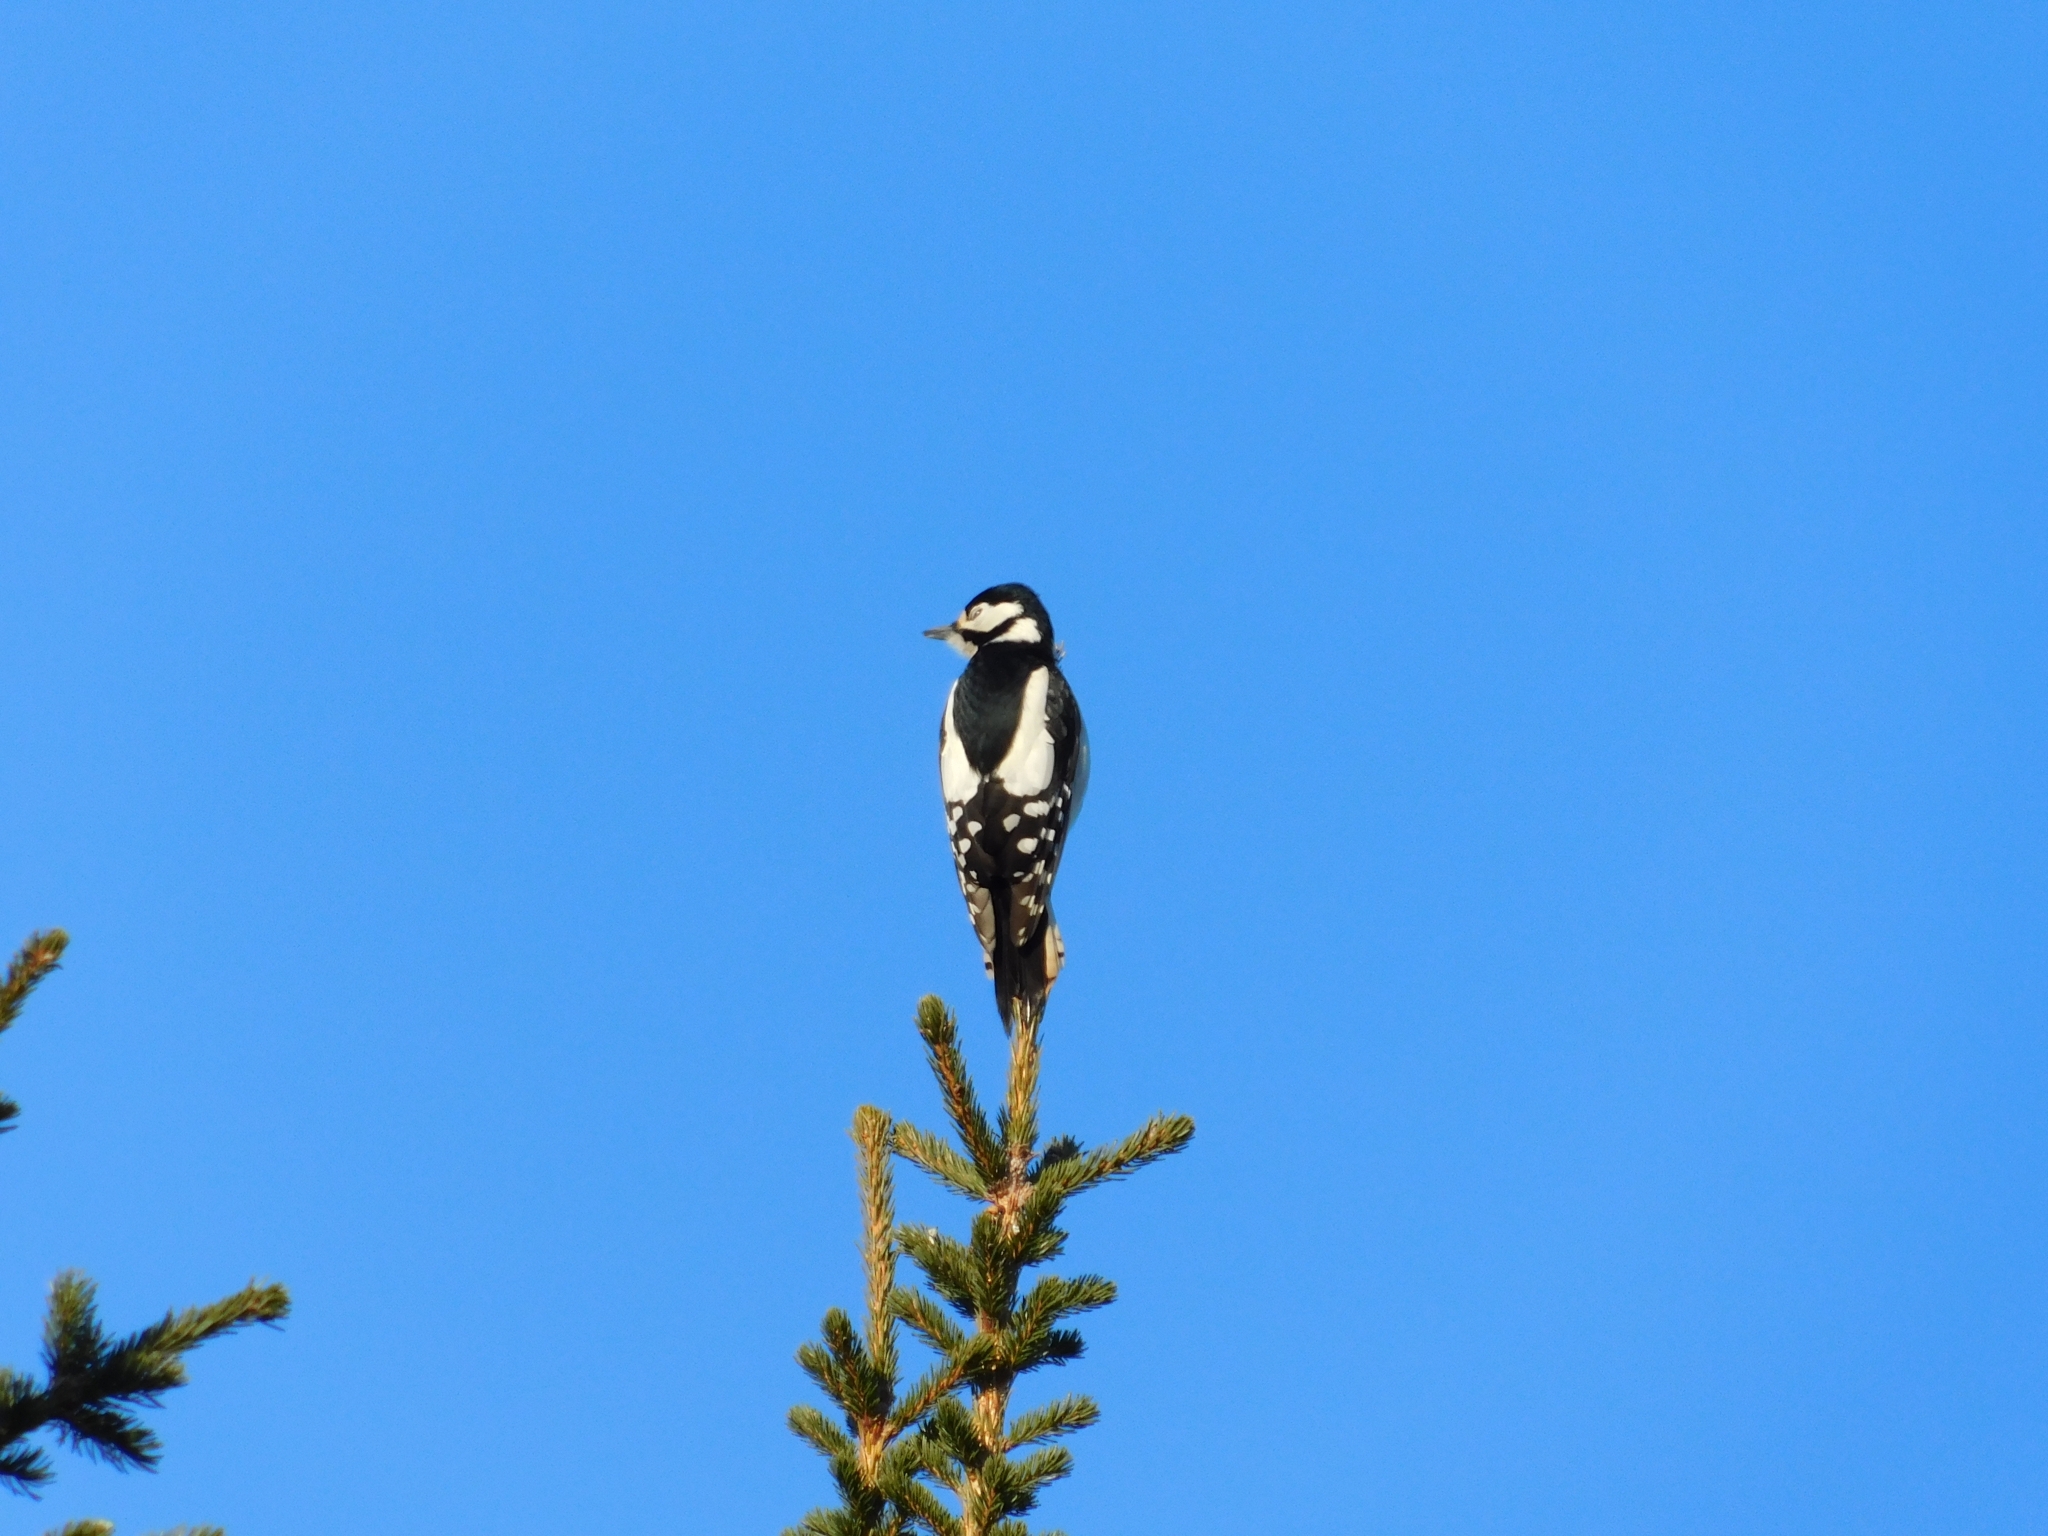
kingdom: Animalia
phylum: Chordata
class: Aves
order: Piciformes
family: Picidae
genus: Dendrocopos
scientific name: Dendrocopos major
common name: Great spotted woodpecker
